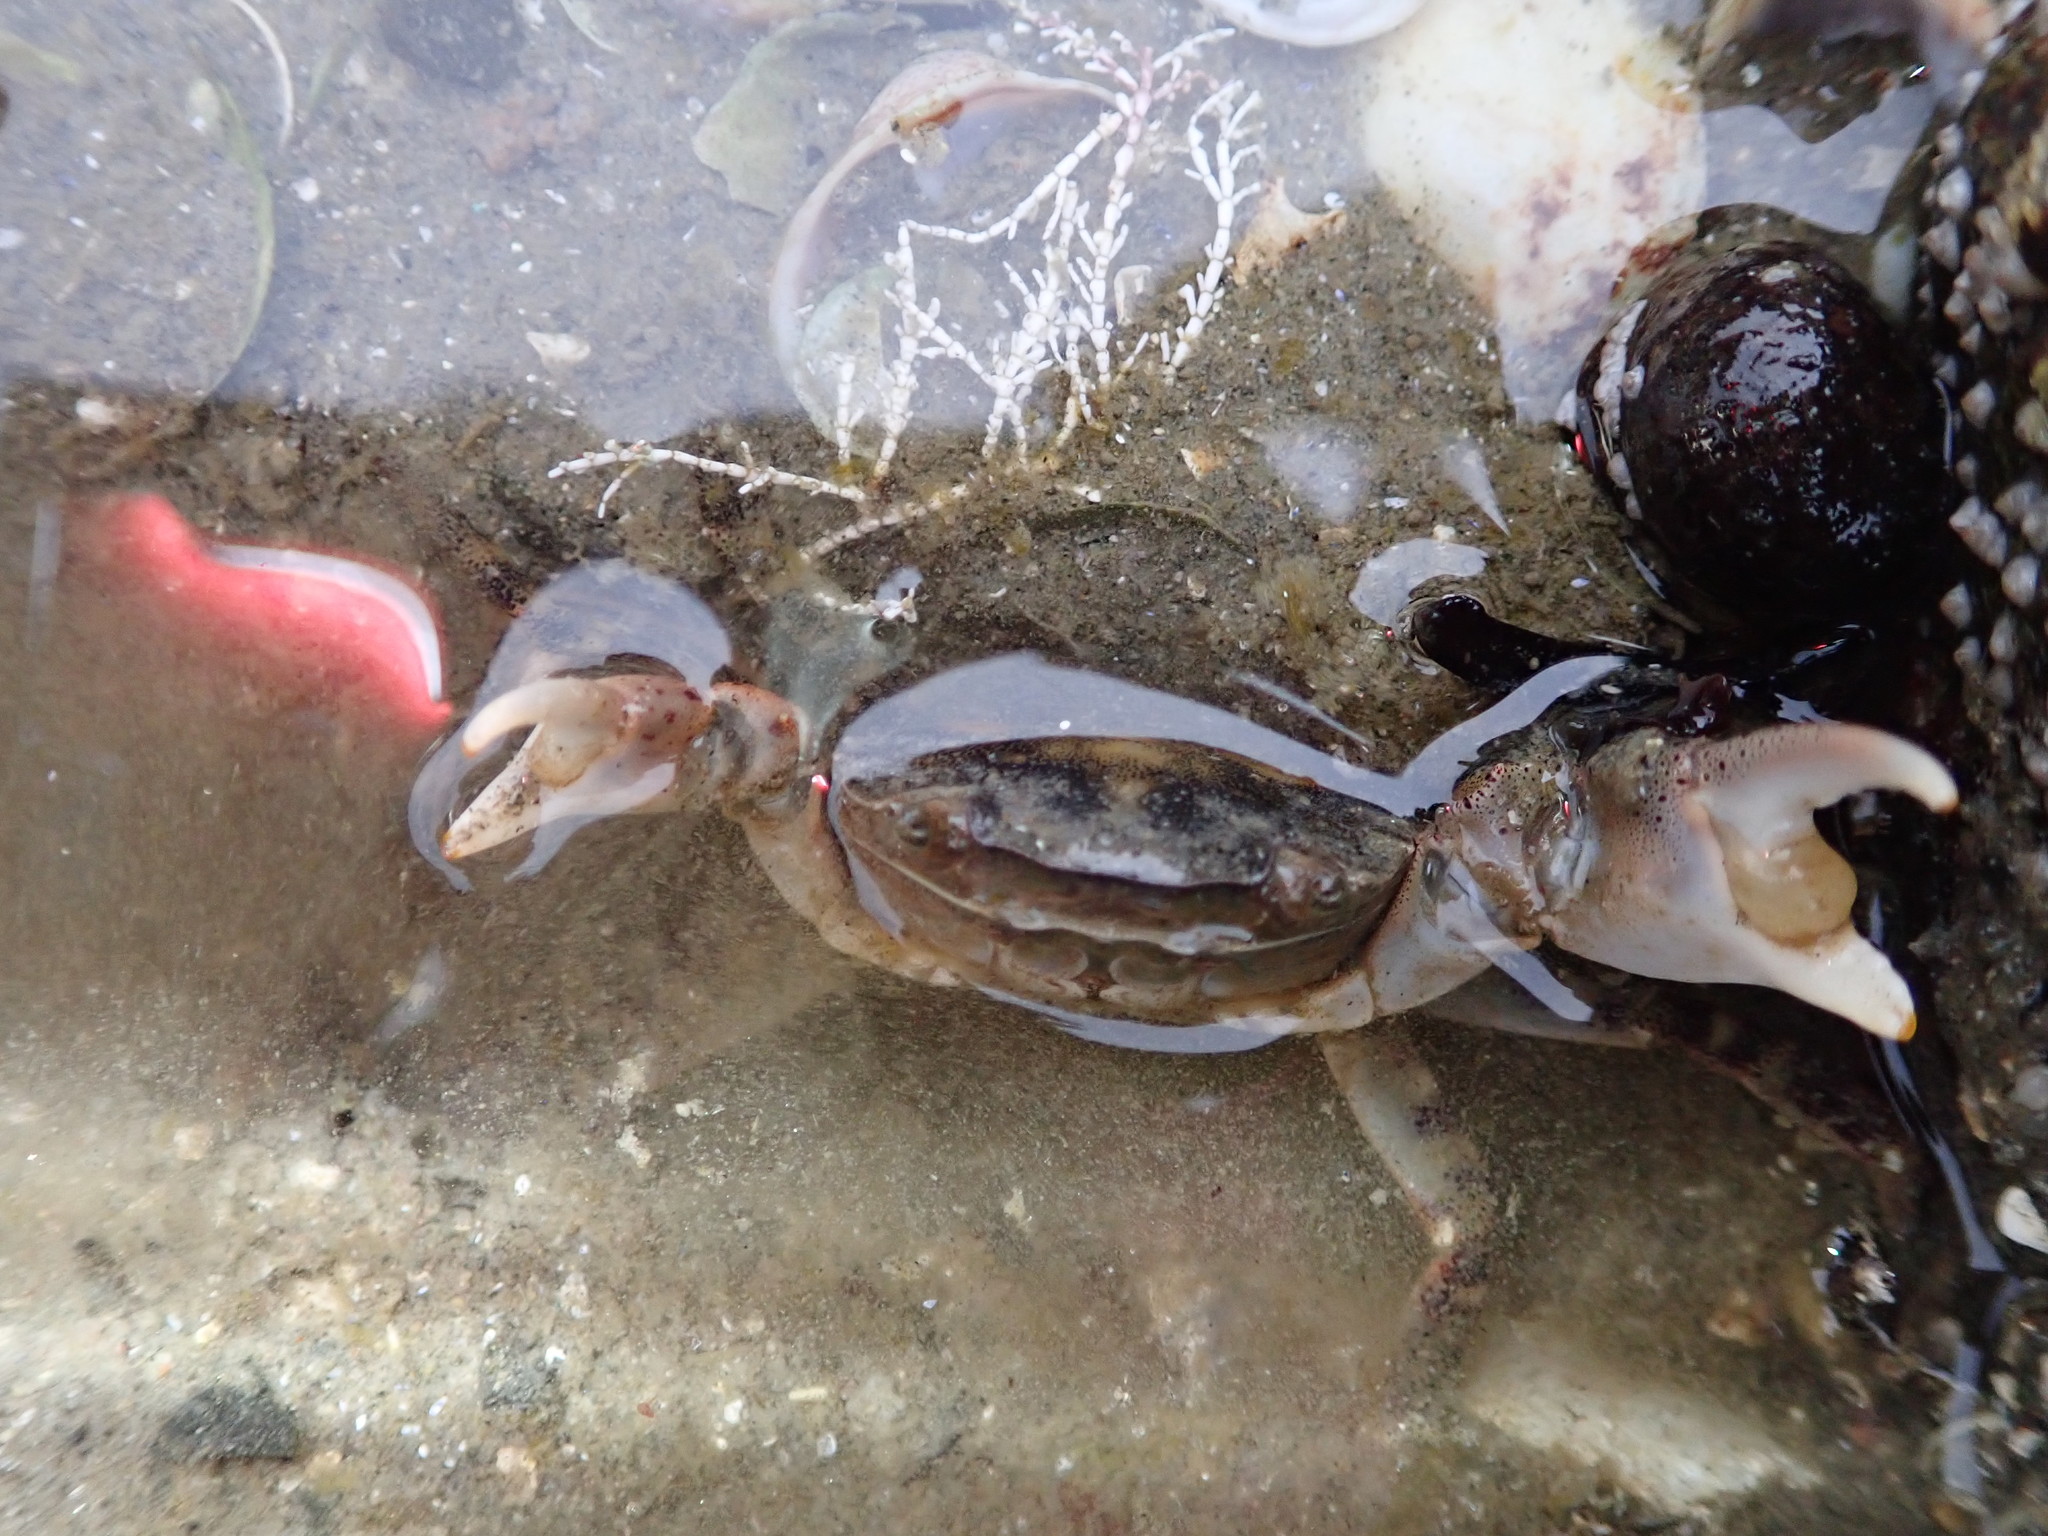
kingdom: Animalia
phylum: Arthropoda
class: Malacostraca
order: Decapoda
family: Varunidae
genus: Hemigrapsus
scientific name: Hemigrapsus sanguineus
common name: Asian shore crab
